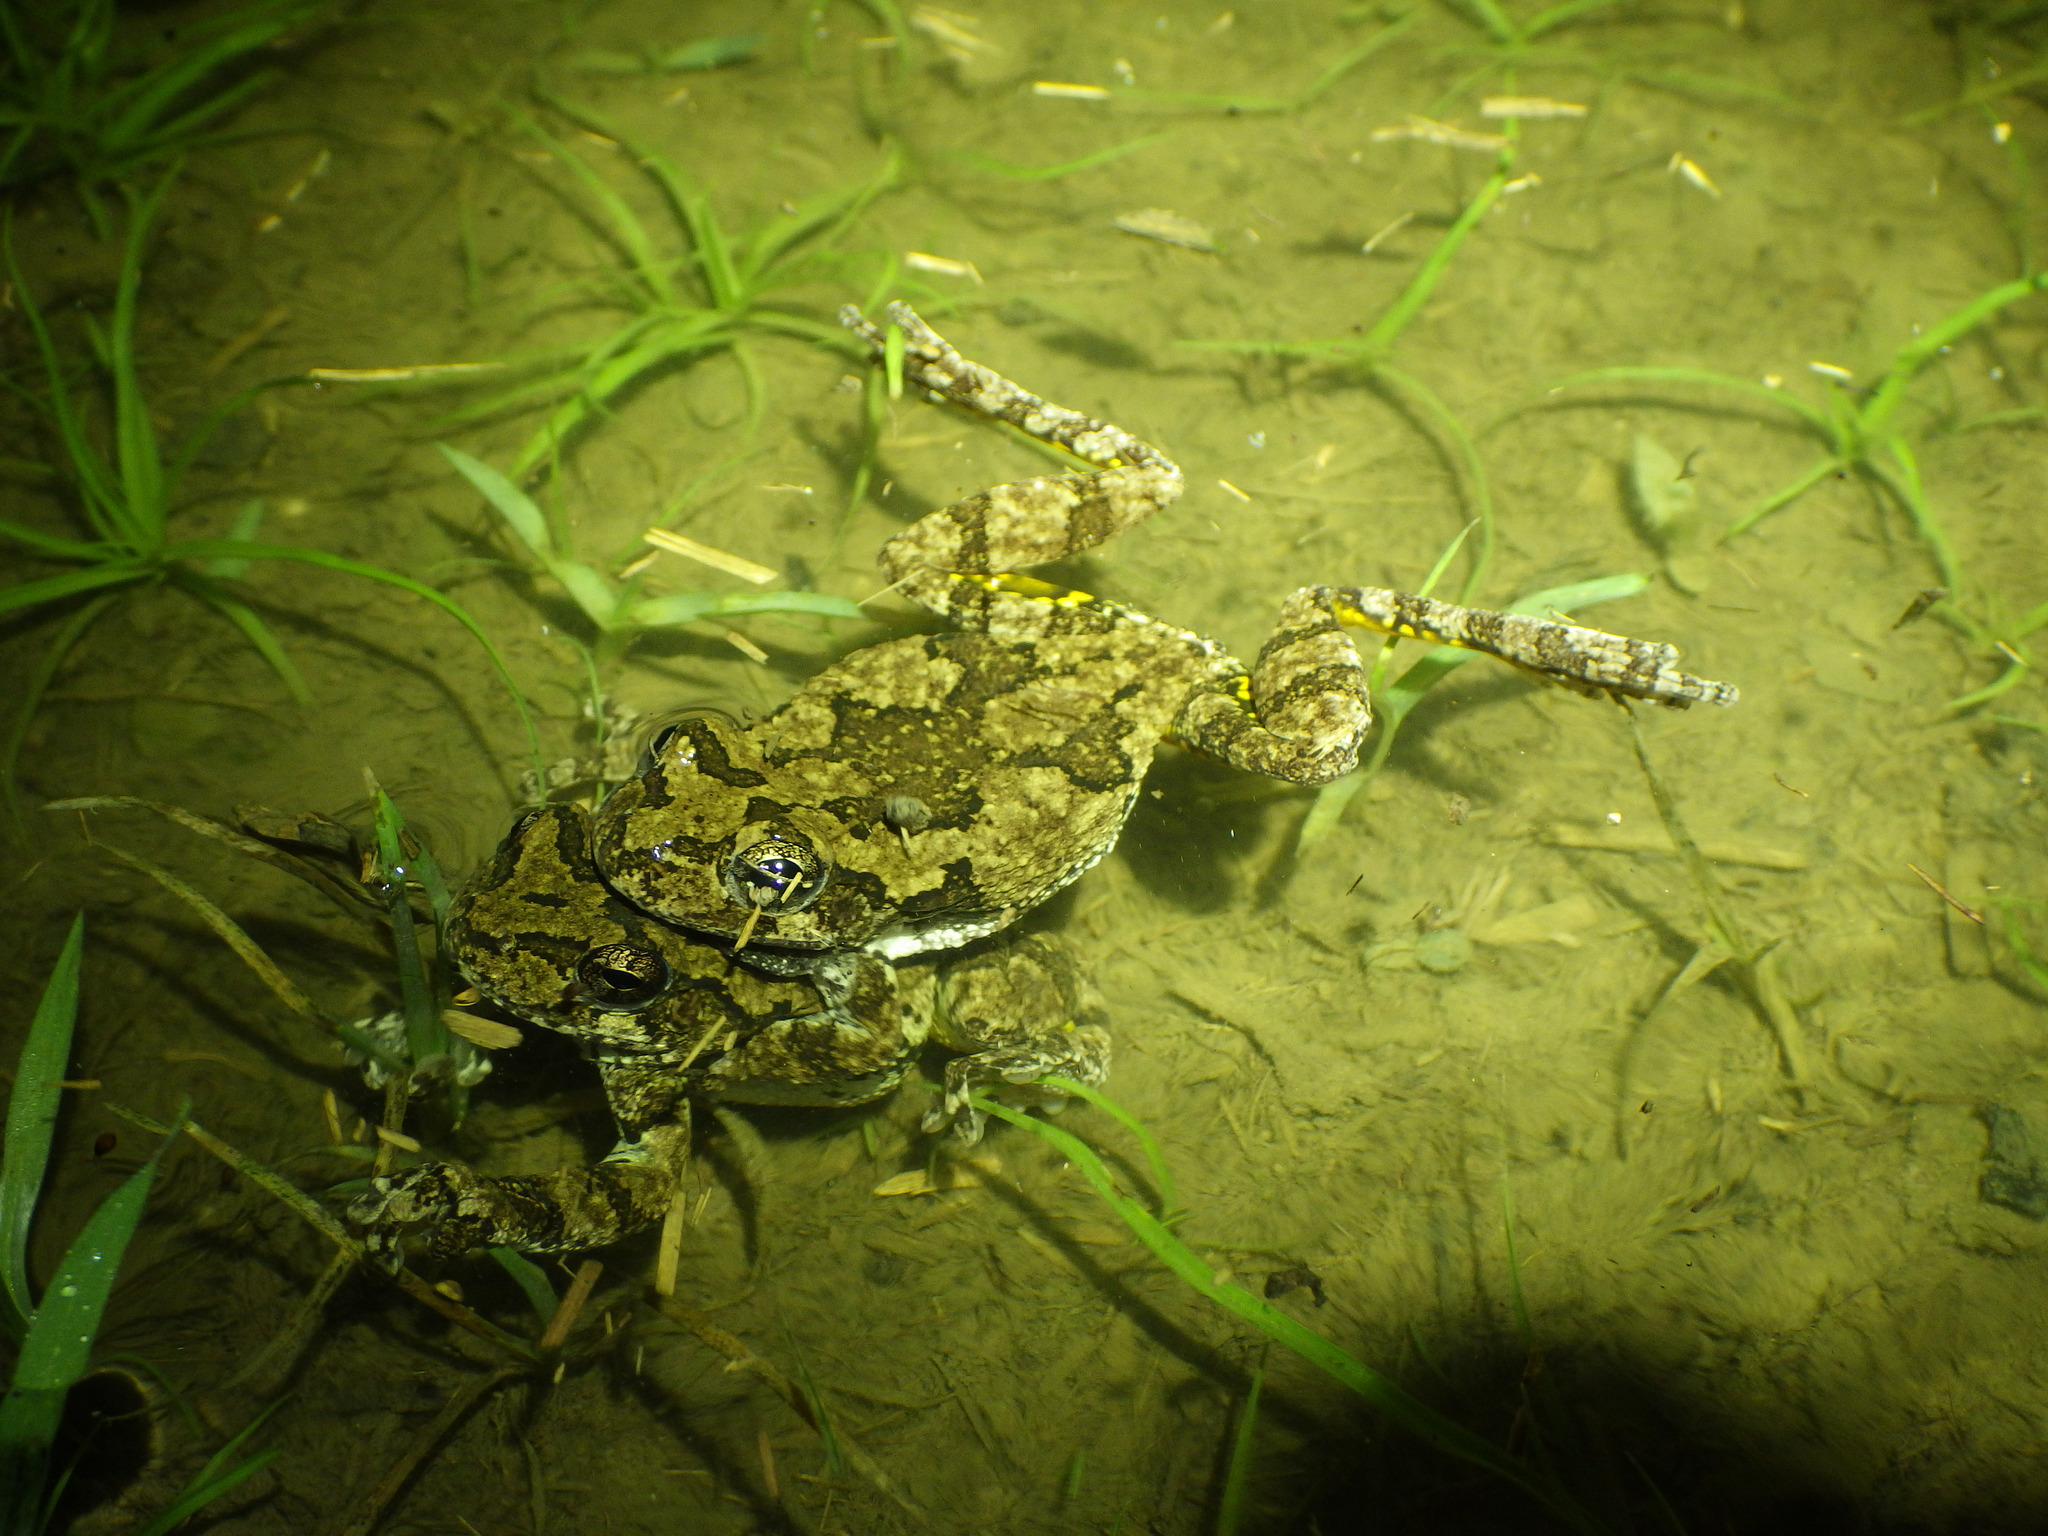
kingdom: Animalia
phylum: Chordata
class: Amphibia
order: Anura
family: Hylidae
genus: Dryophytes
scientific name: Dryophytes chrysoscelis
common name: Cope's gray treefrog
